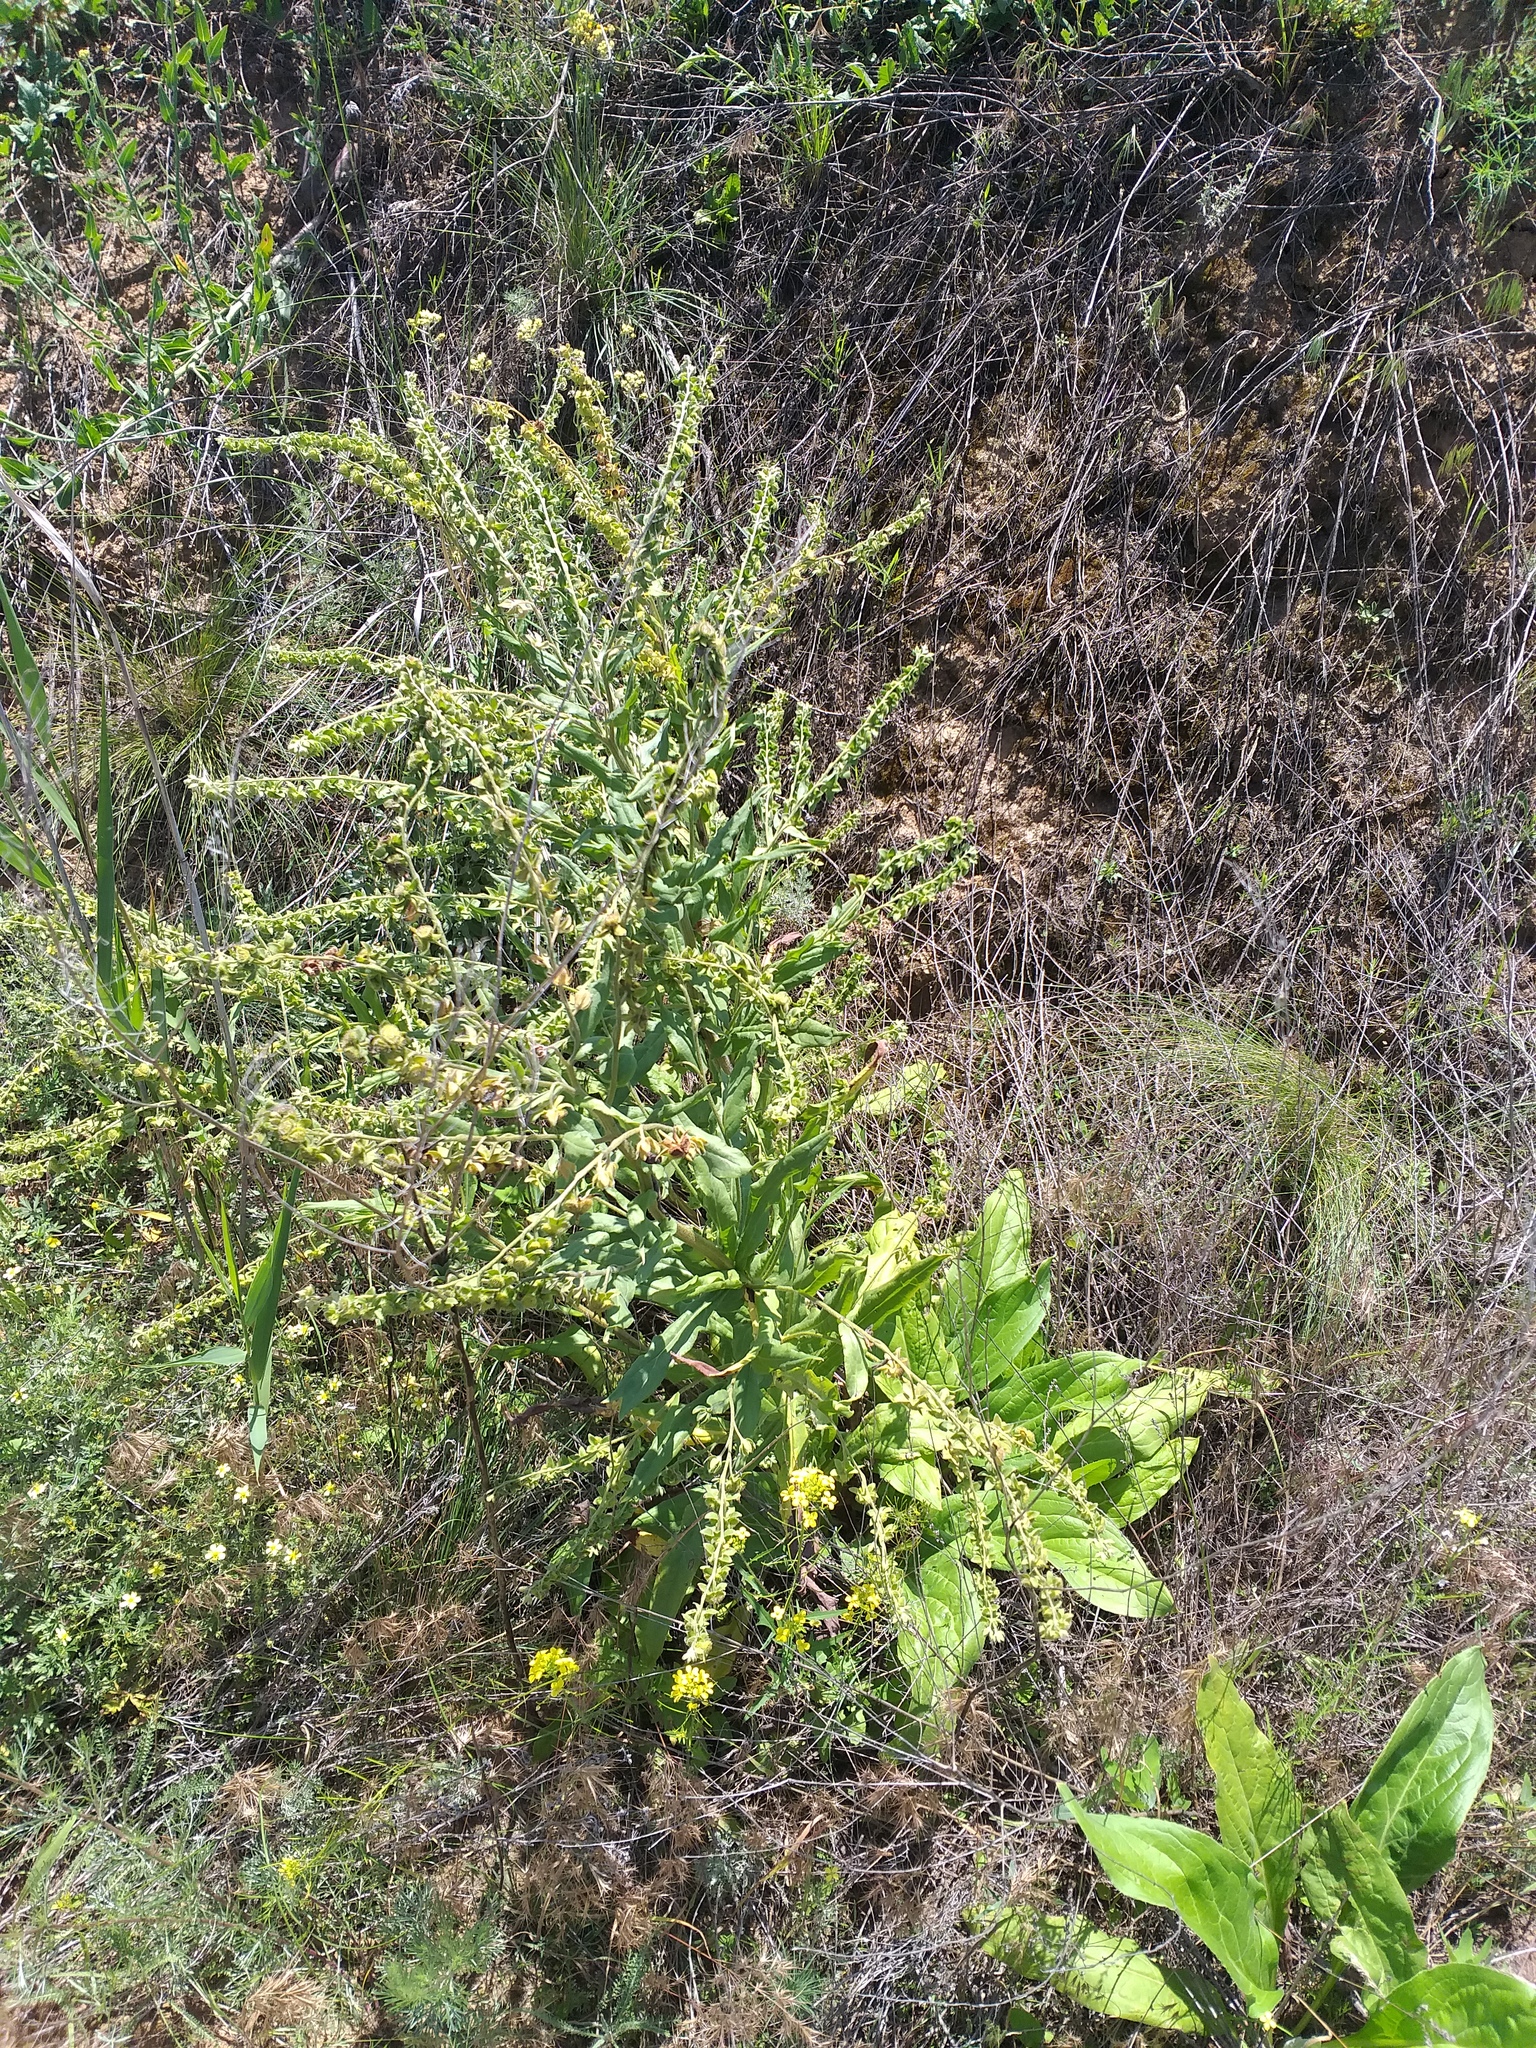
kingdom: Plantae
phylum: Tracheophyta
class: Magnoliopsida
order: Boraginales
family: Boraginaceae
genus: Cynoglossum
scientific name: Cynoglossum officinale
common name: Hound's-tongue
